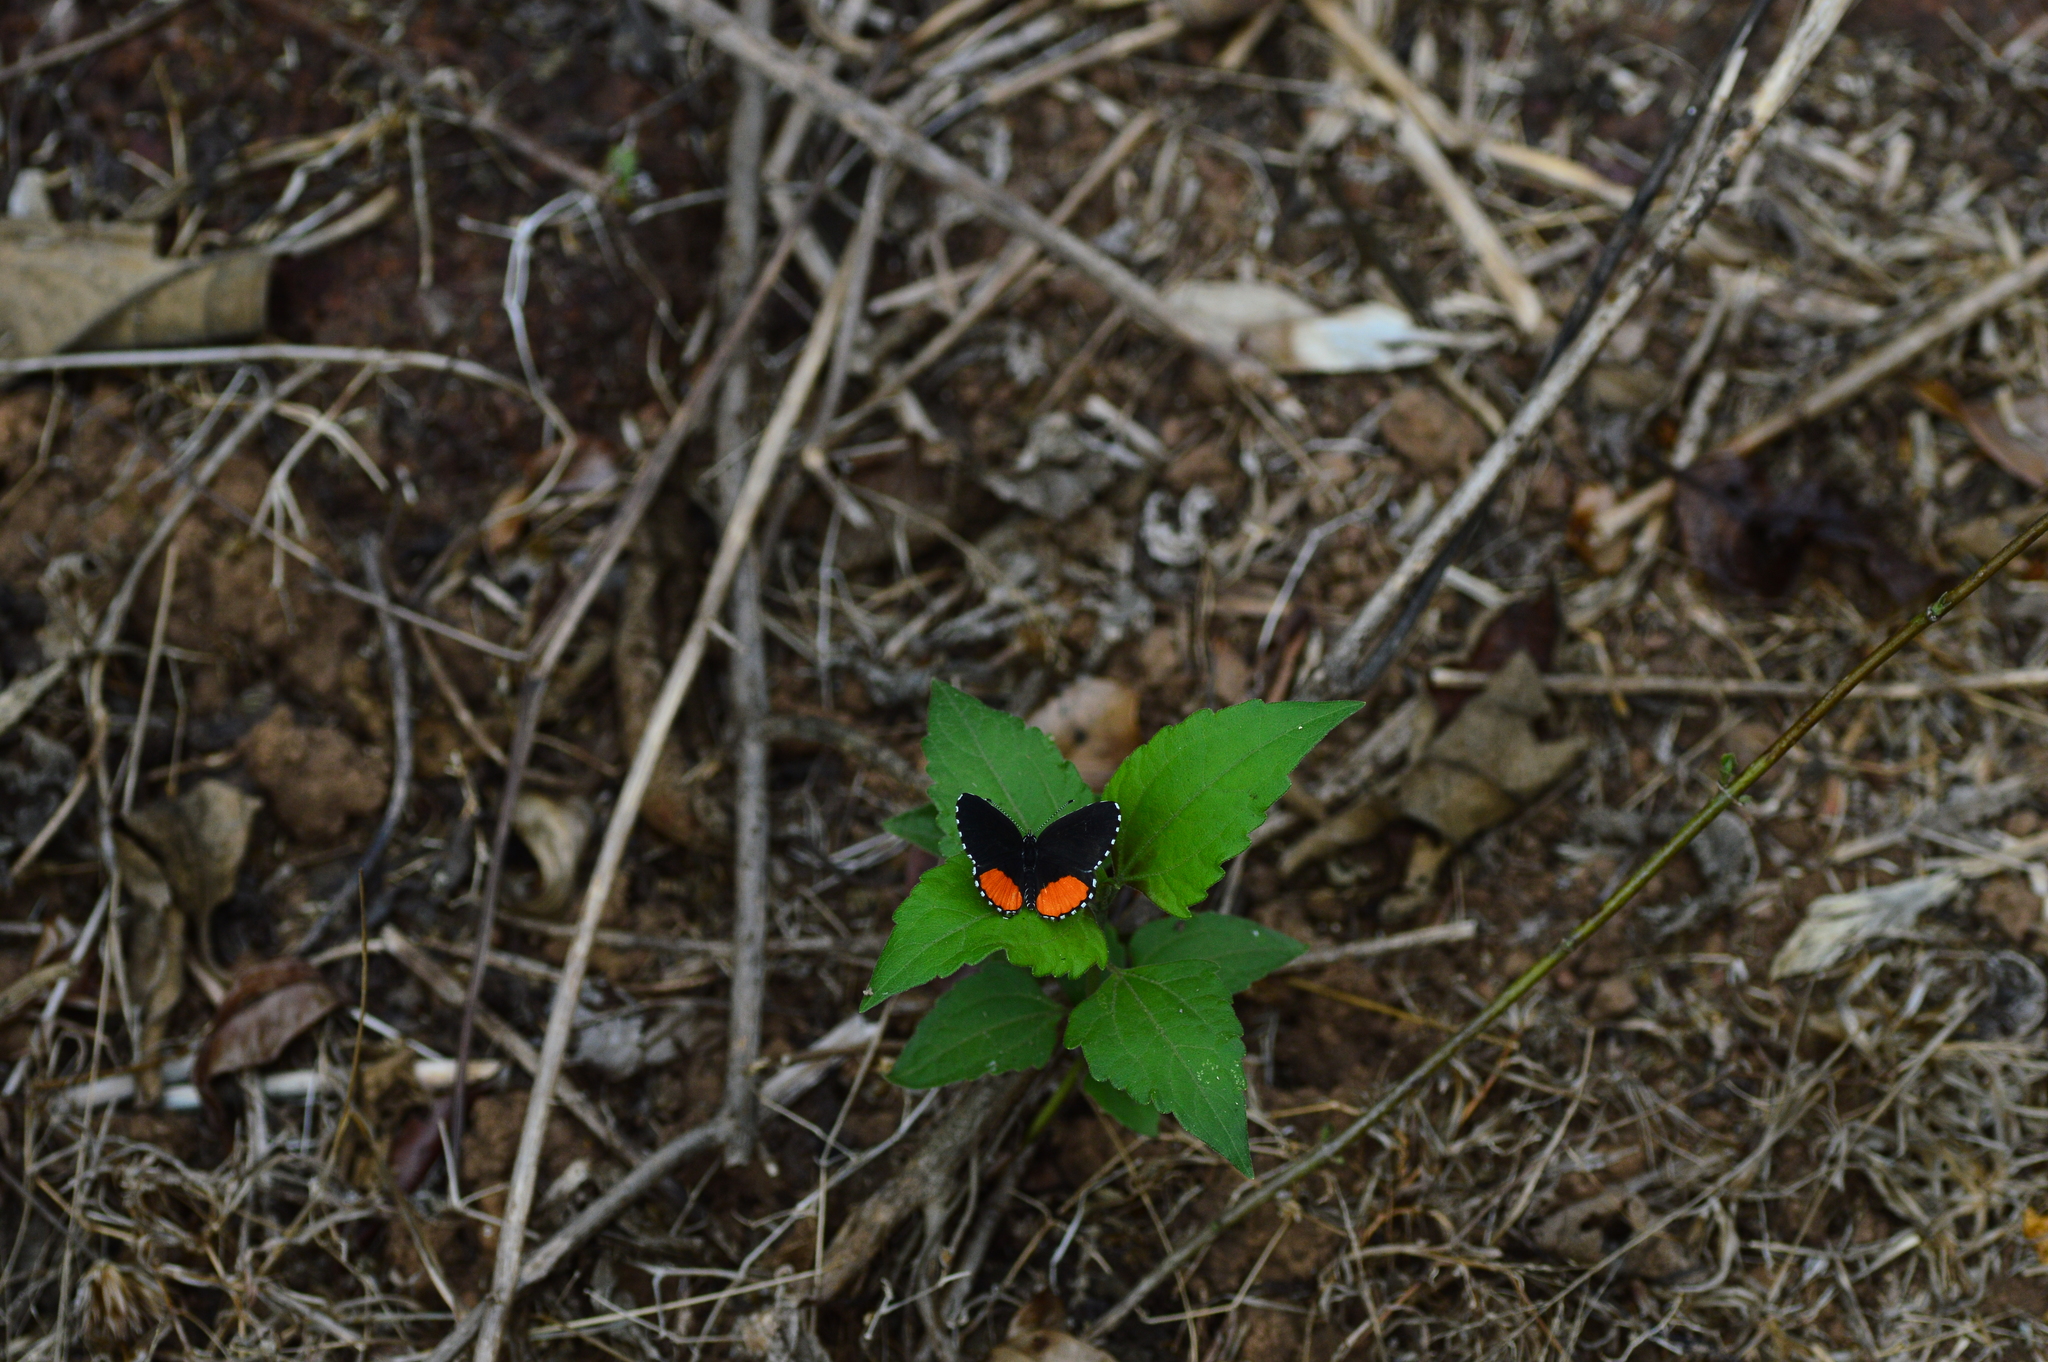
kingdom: Animalia
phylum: Arthropoda
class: Insecta
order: Lepidoptera
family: Lycaenidae
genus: Talicada
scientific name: Talicada nyseus
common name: Red pierrot
